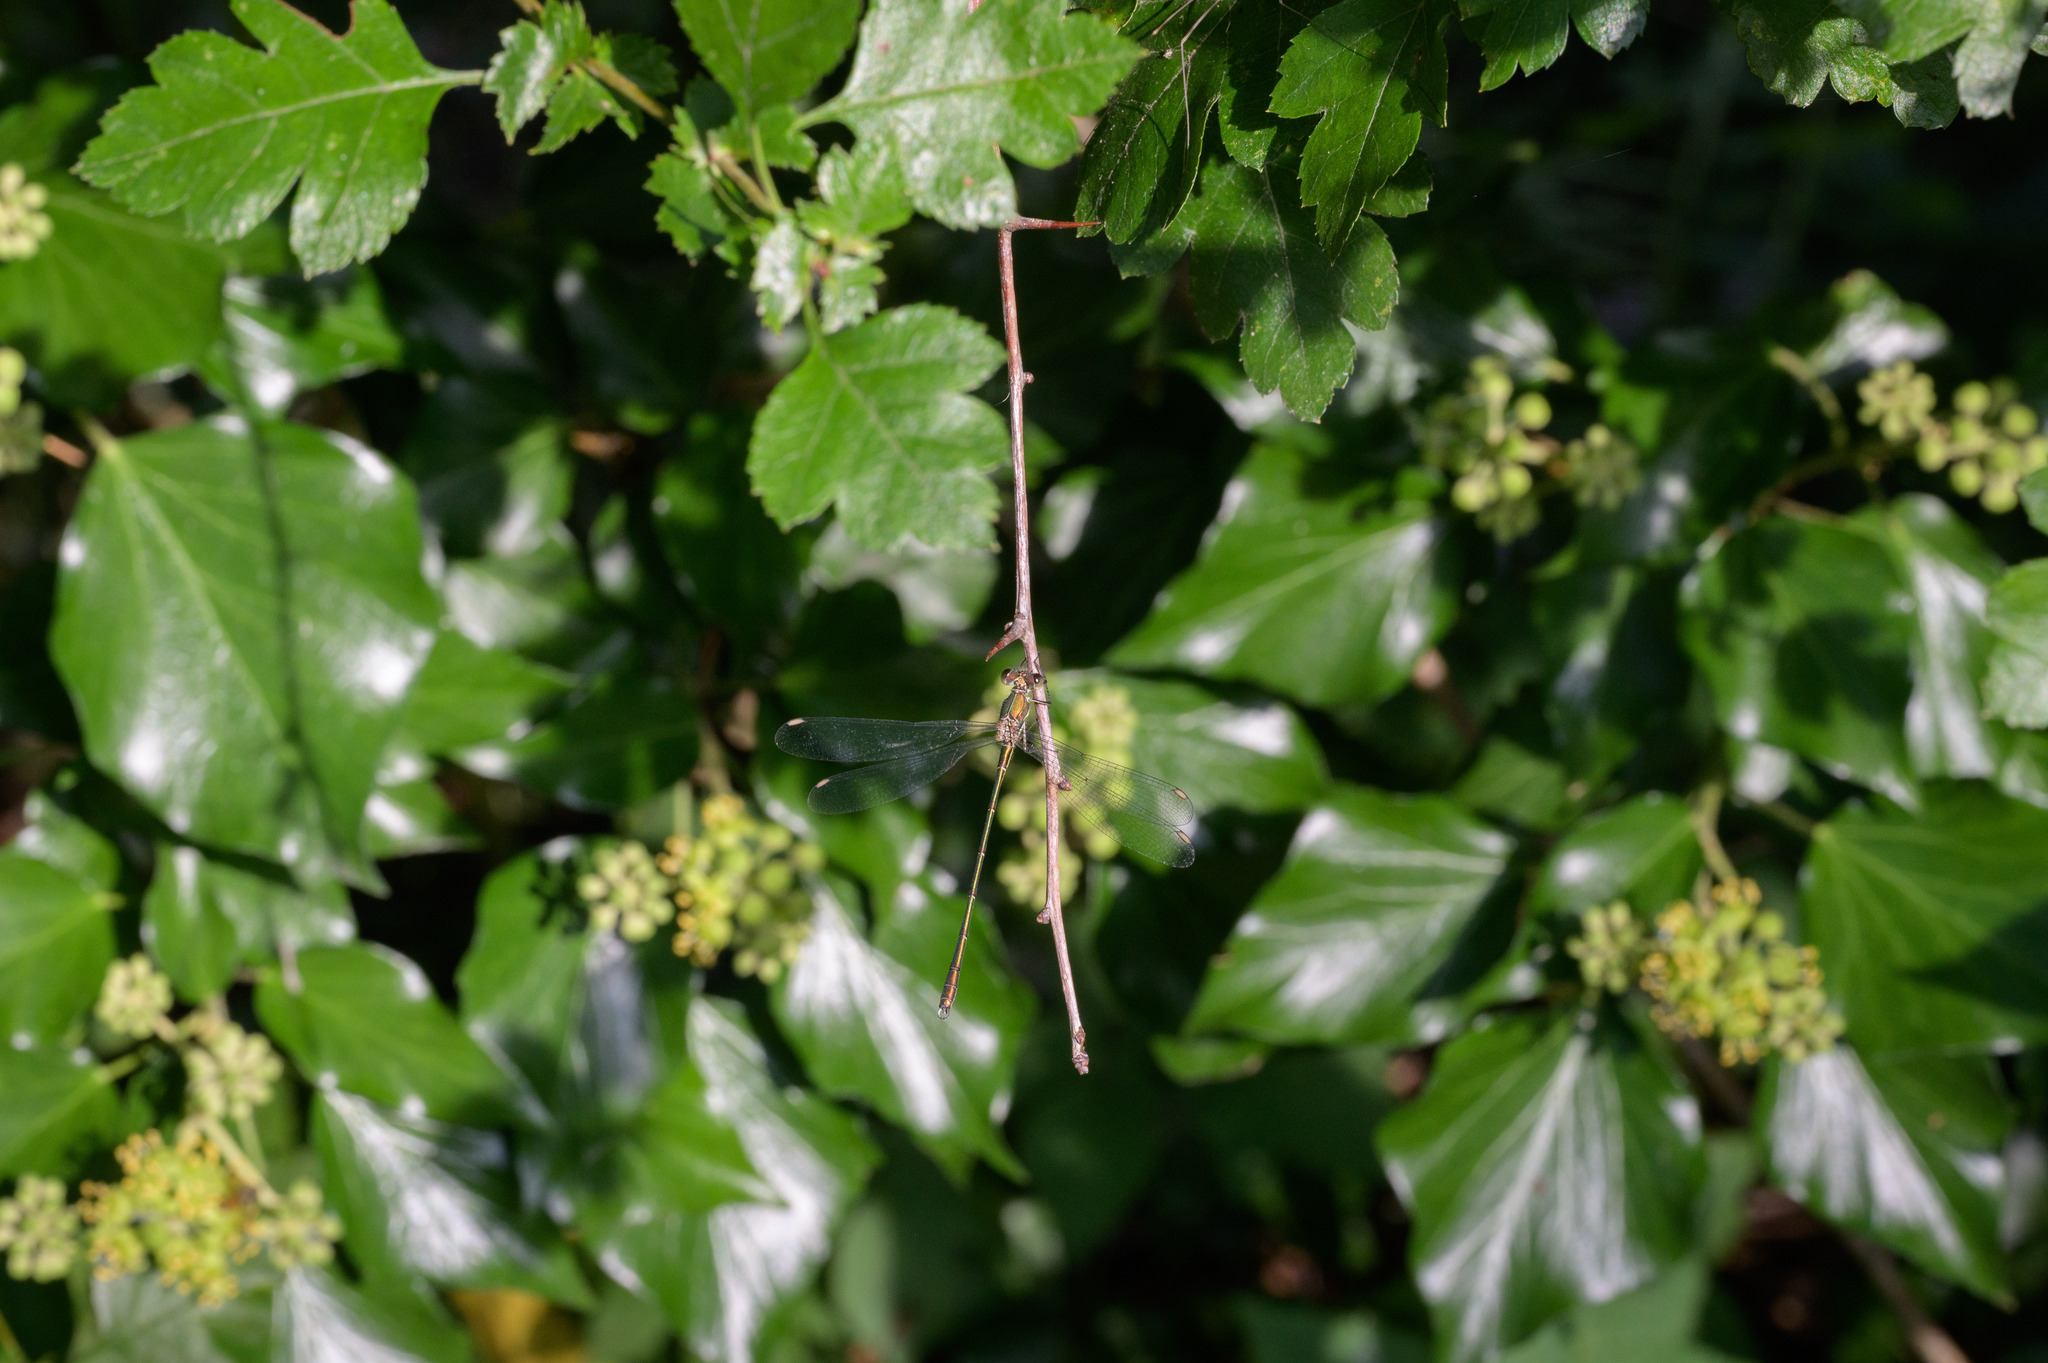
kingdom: Animalia
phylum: Arthropoda
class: Insecta
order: Odonata
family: Lestidae
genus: Chalcolestes
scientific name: Chalcolestes viridis
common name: Green emerald damselfly
